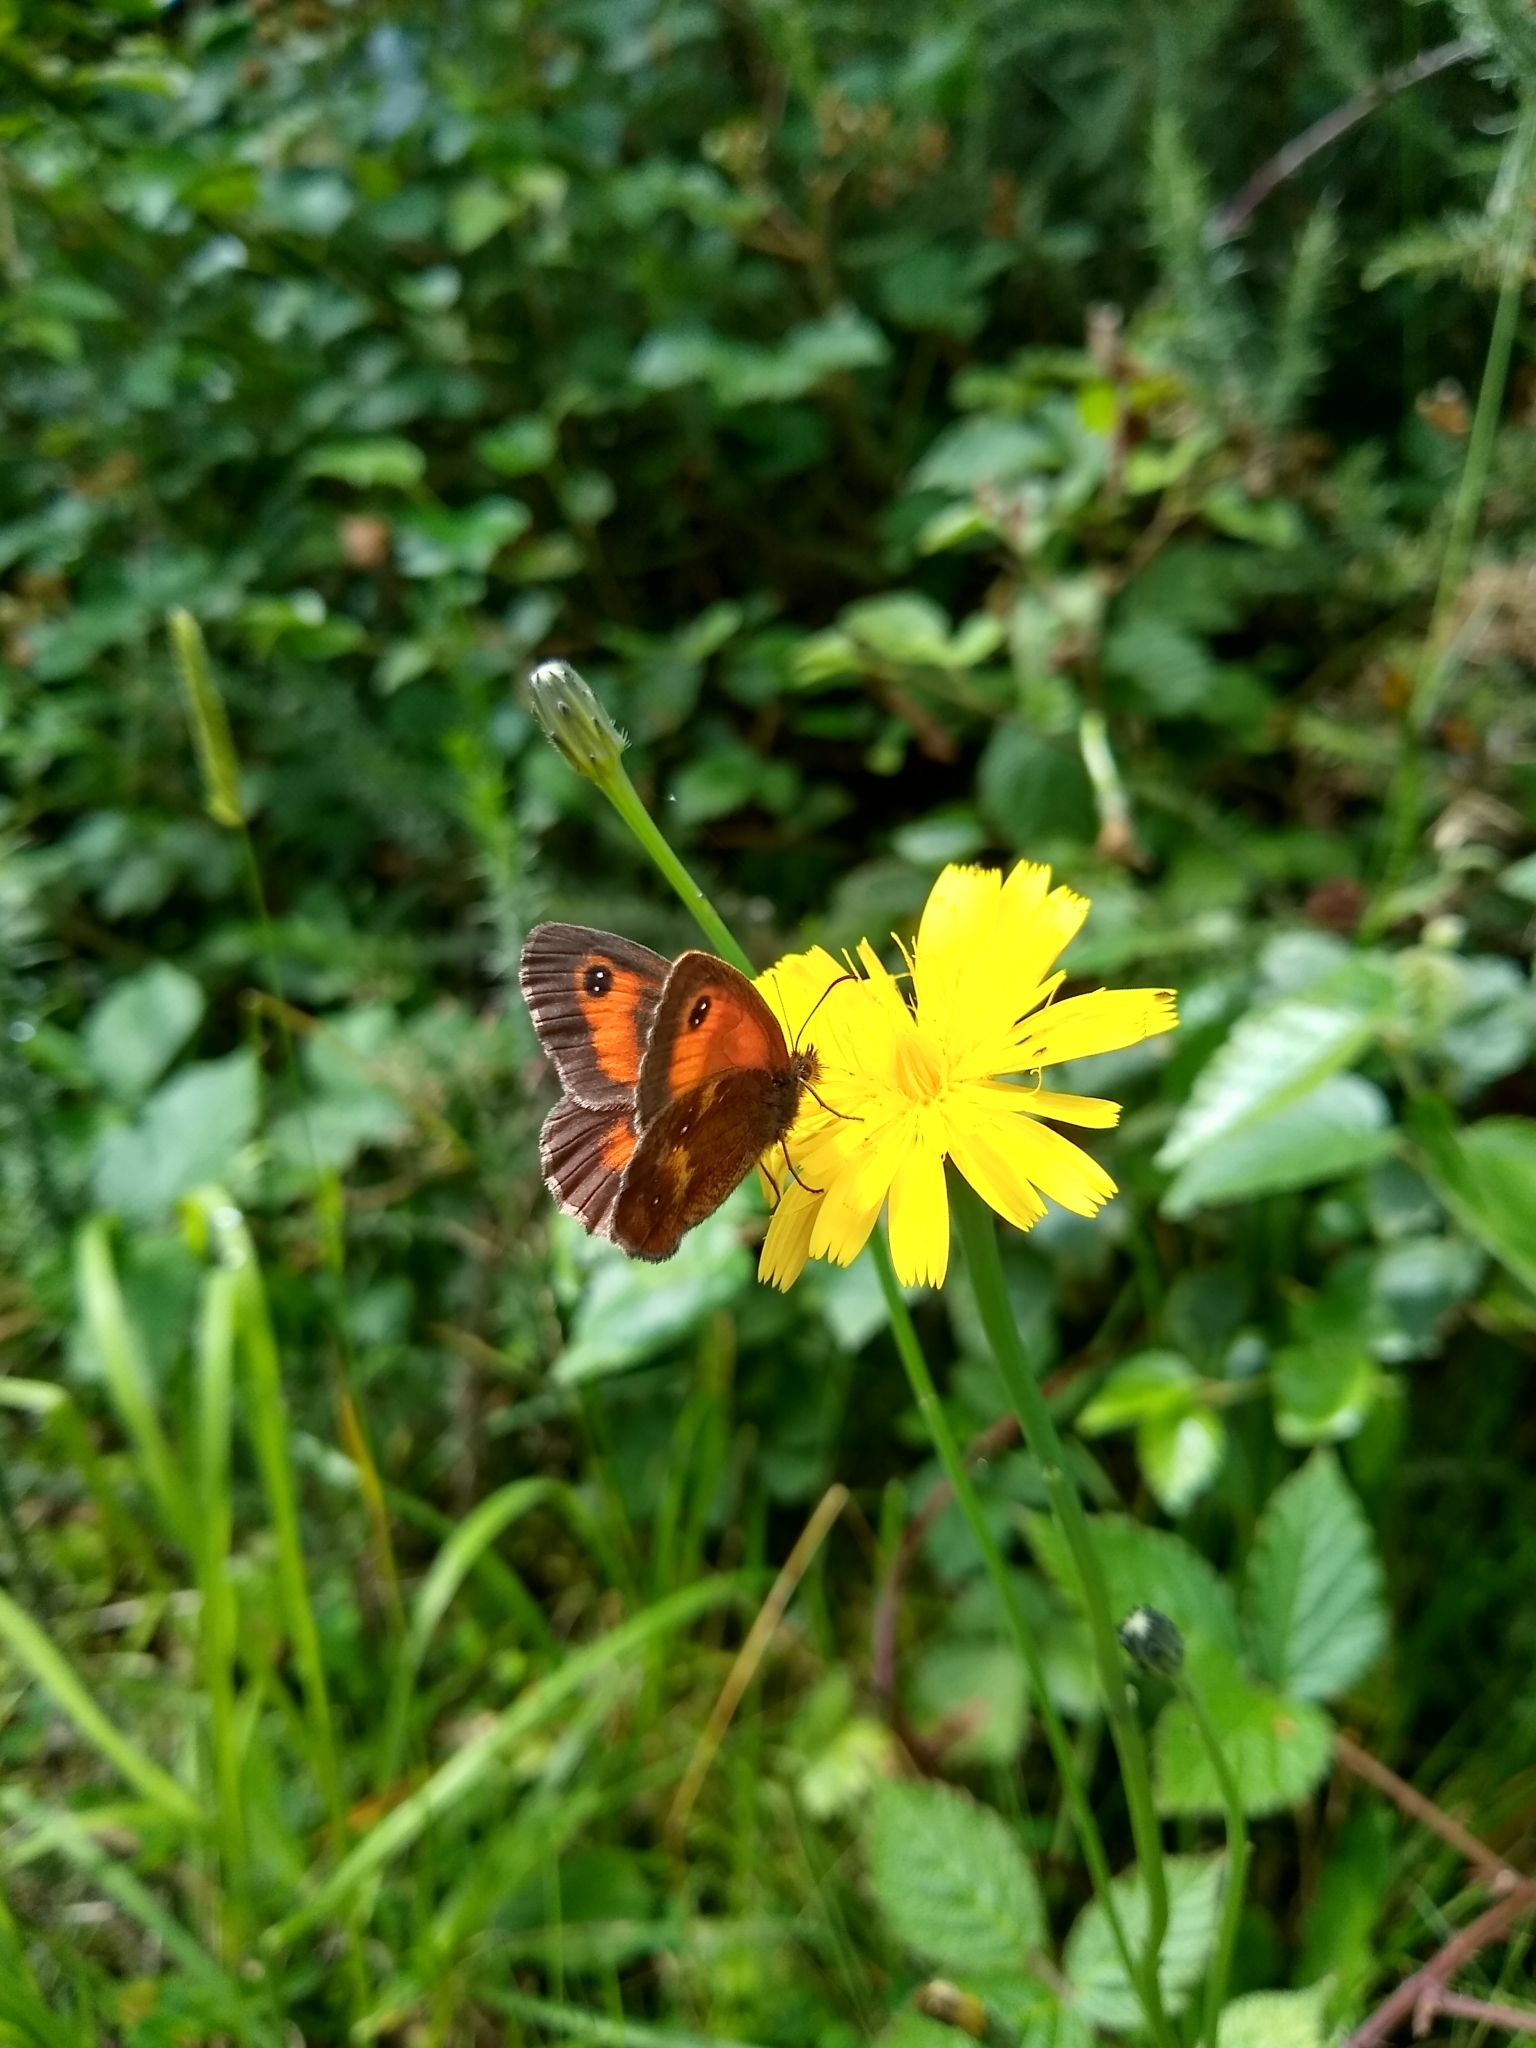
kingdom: Animalia
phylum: Arthropoda
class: Insecta
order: Lepidoptera
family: Nymphalidae
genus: Pyronia
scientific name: Pyronia tithonus
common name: Gatekeeper
